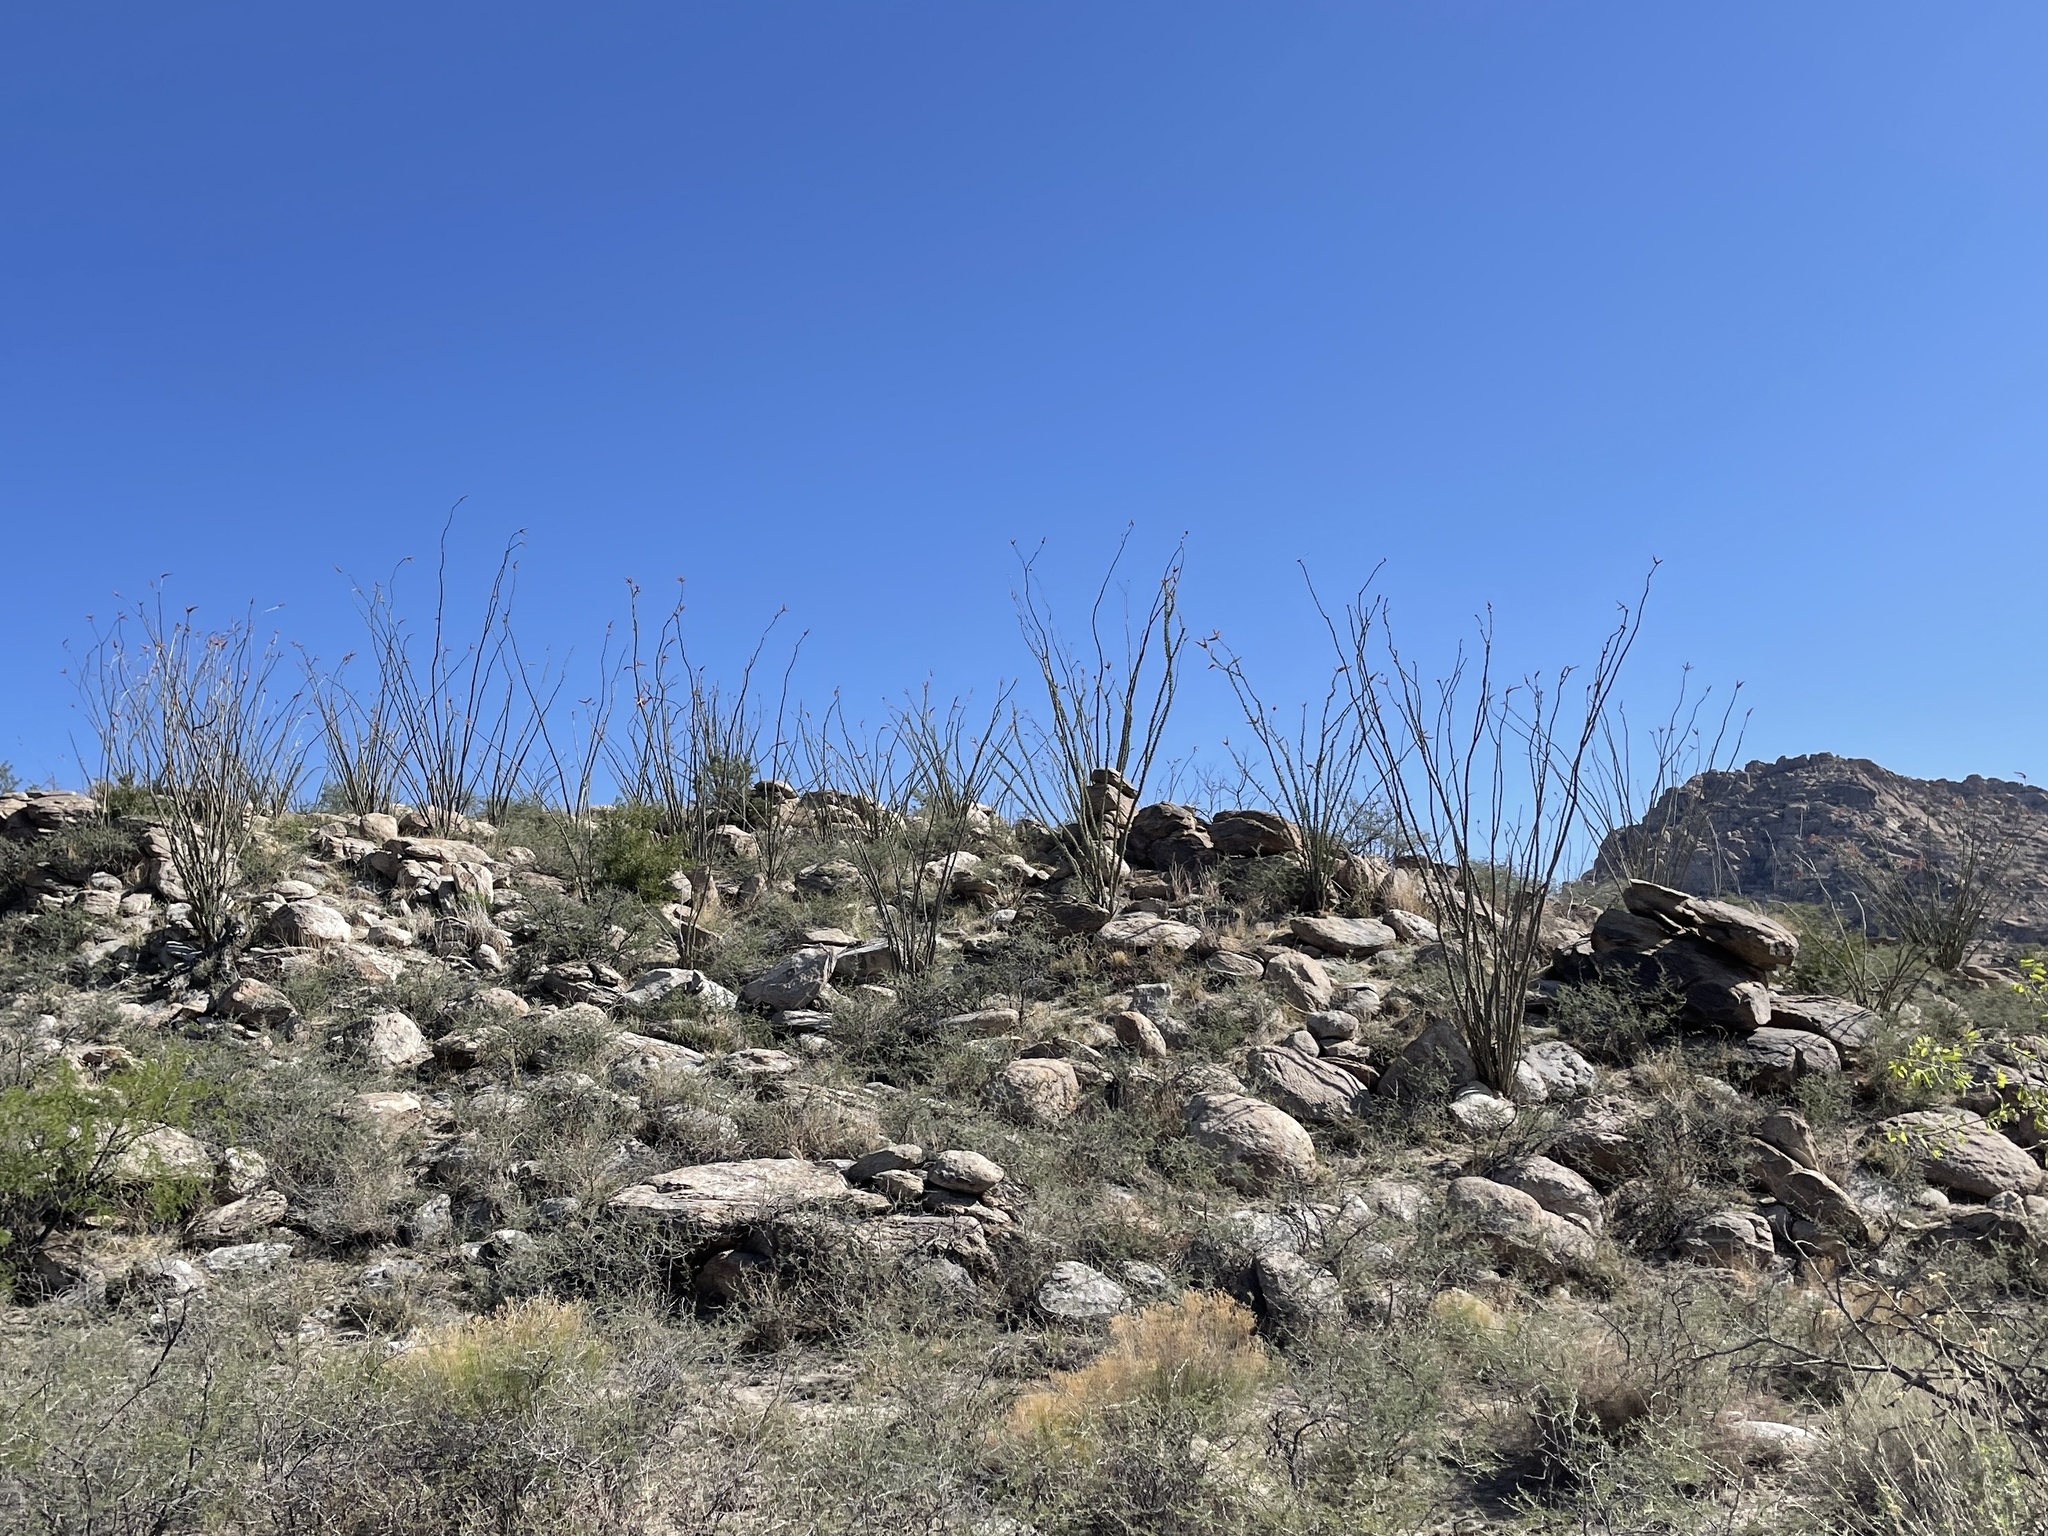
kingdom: Plantae
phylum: Tracheophyta
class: Magnoliopsida
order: Ericales
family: Fouquieriaceae
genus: Fouquieria
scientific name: Fouquieria splendens
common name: Vine-cactus
